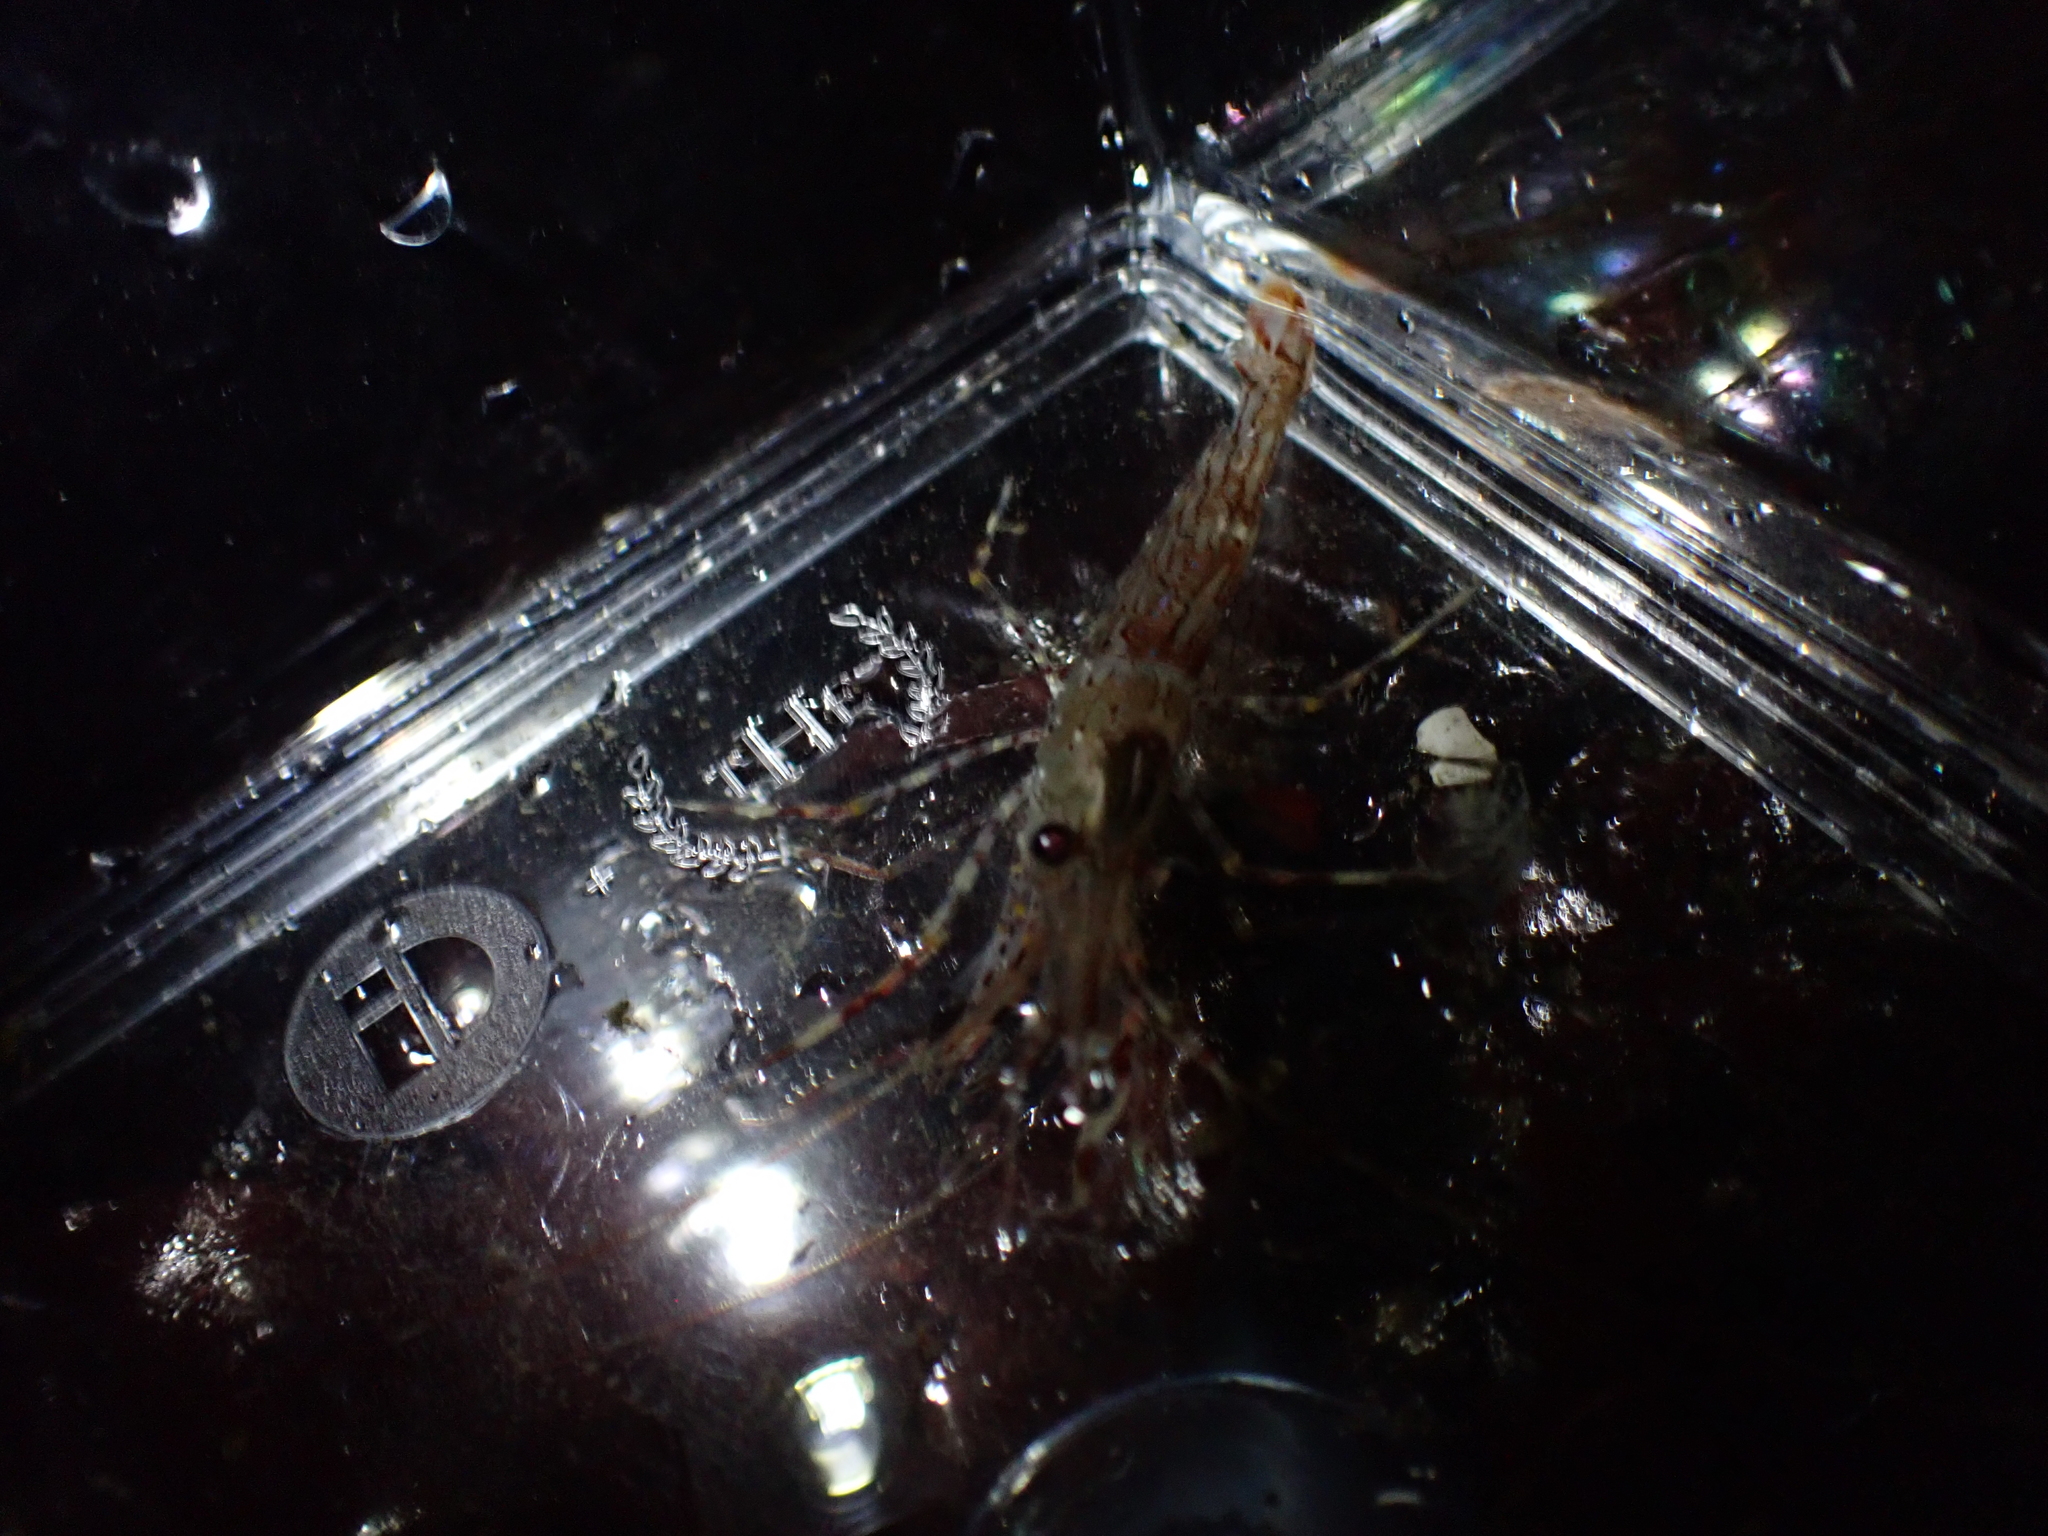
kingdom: Animalia
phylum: Arthropoda
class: Malacostraca
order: Decapoda
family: Pandalidae
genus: Pandalus
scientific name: Pandalus danae
